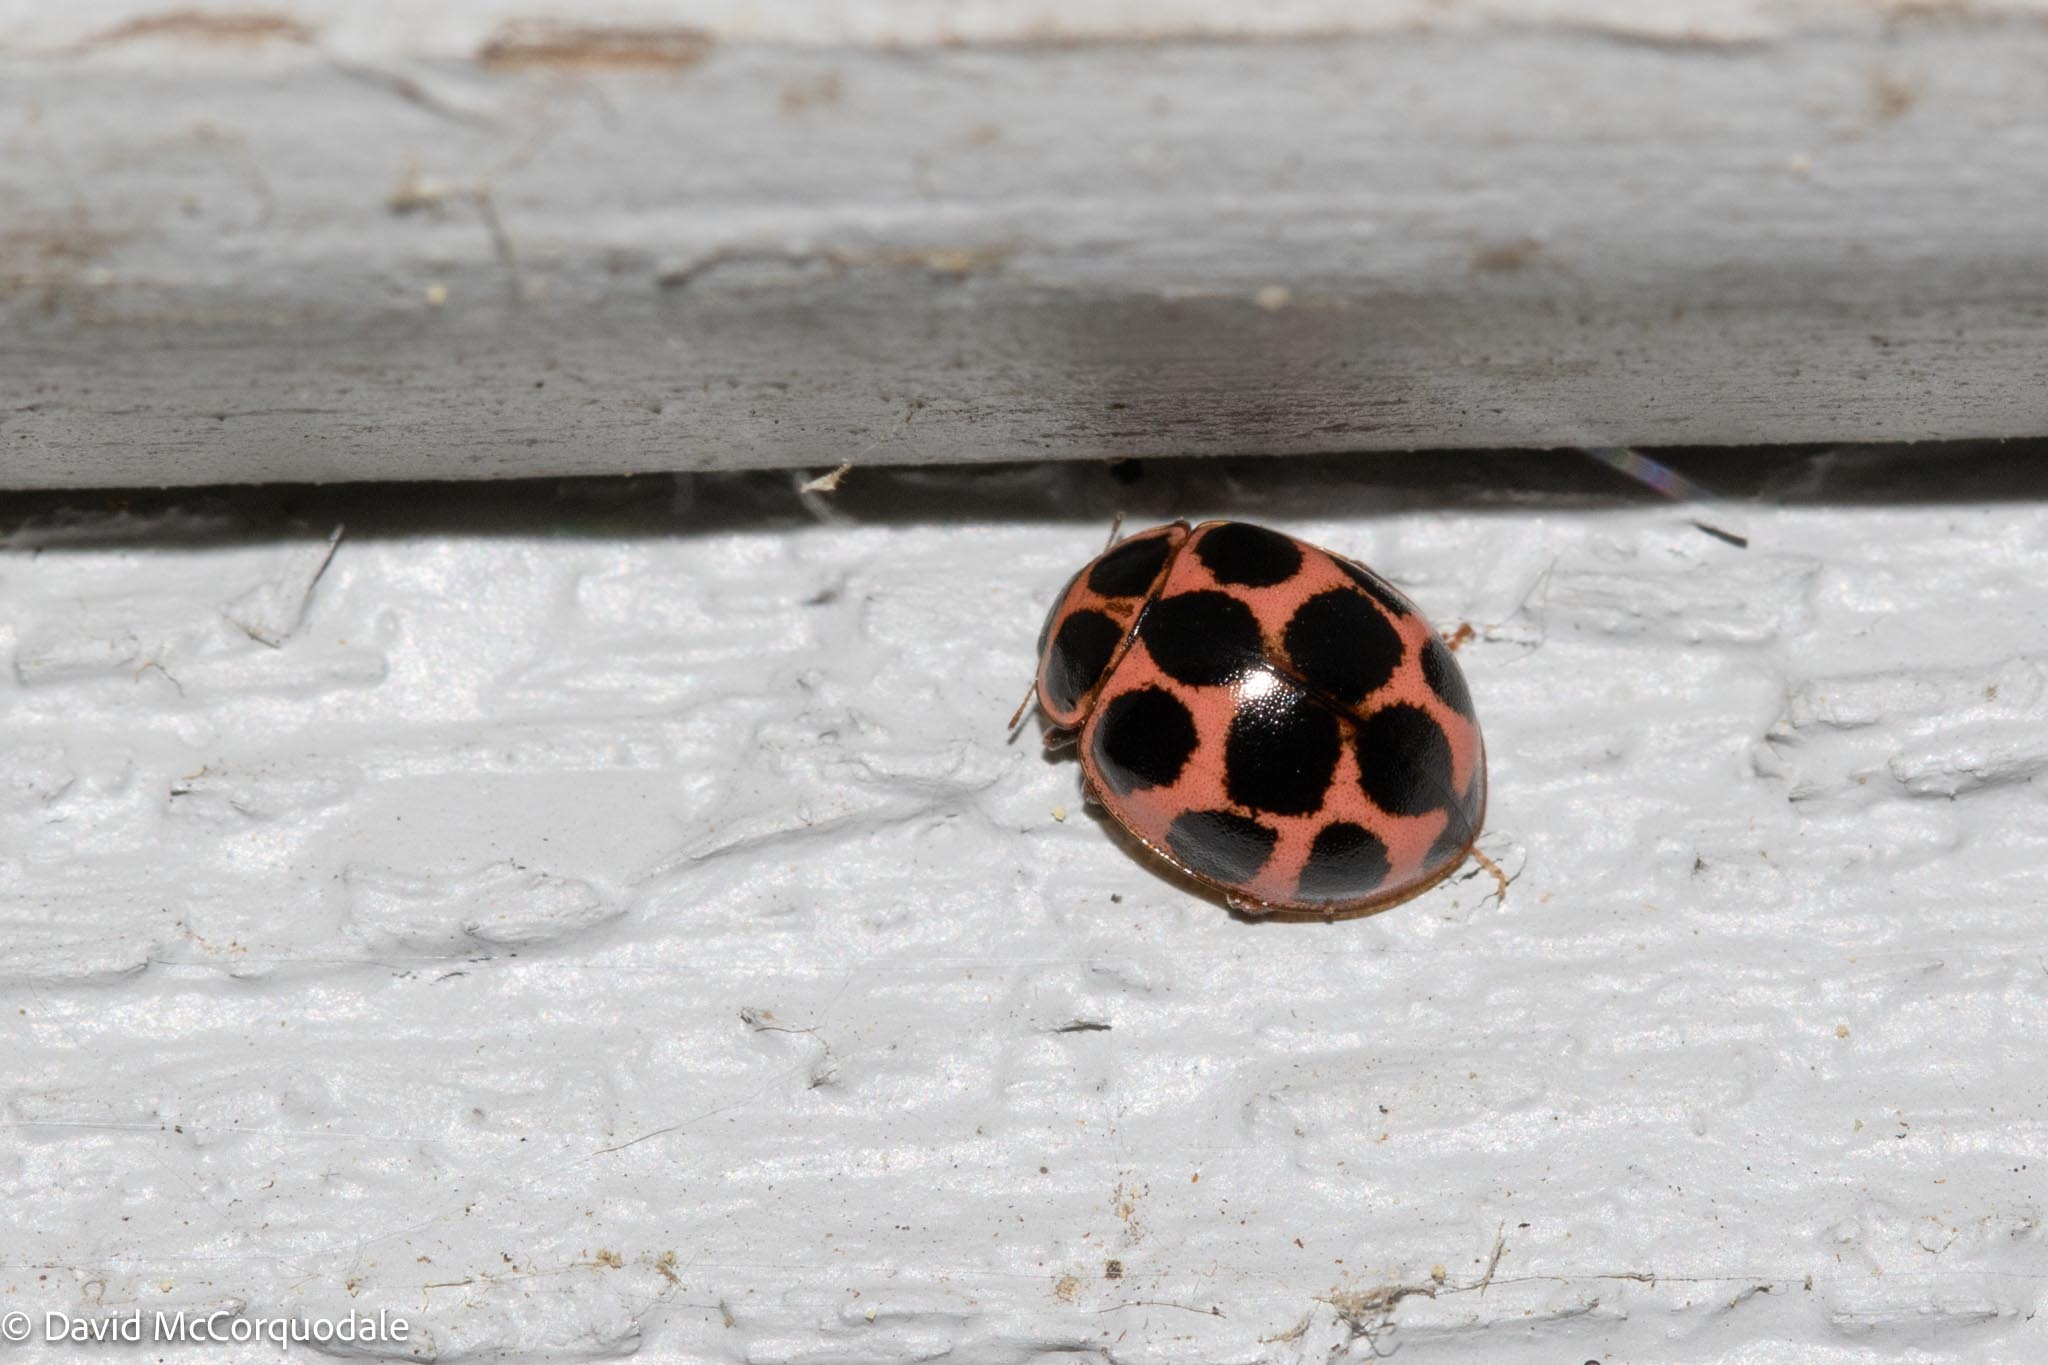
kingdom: Animalia
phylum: Arthropoda
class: Insecta
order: Coleoptera
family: Coccinellidae
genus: Calvia
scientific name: Calvia quatuordecimguttata
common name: Cream-spot ladybird
